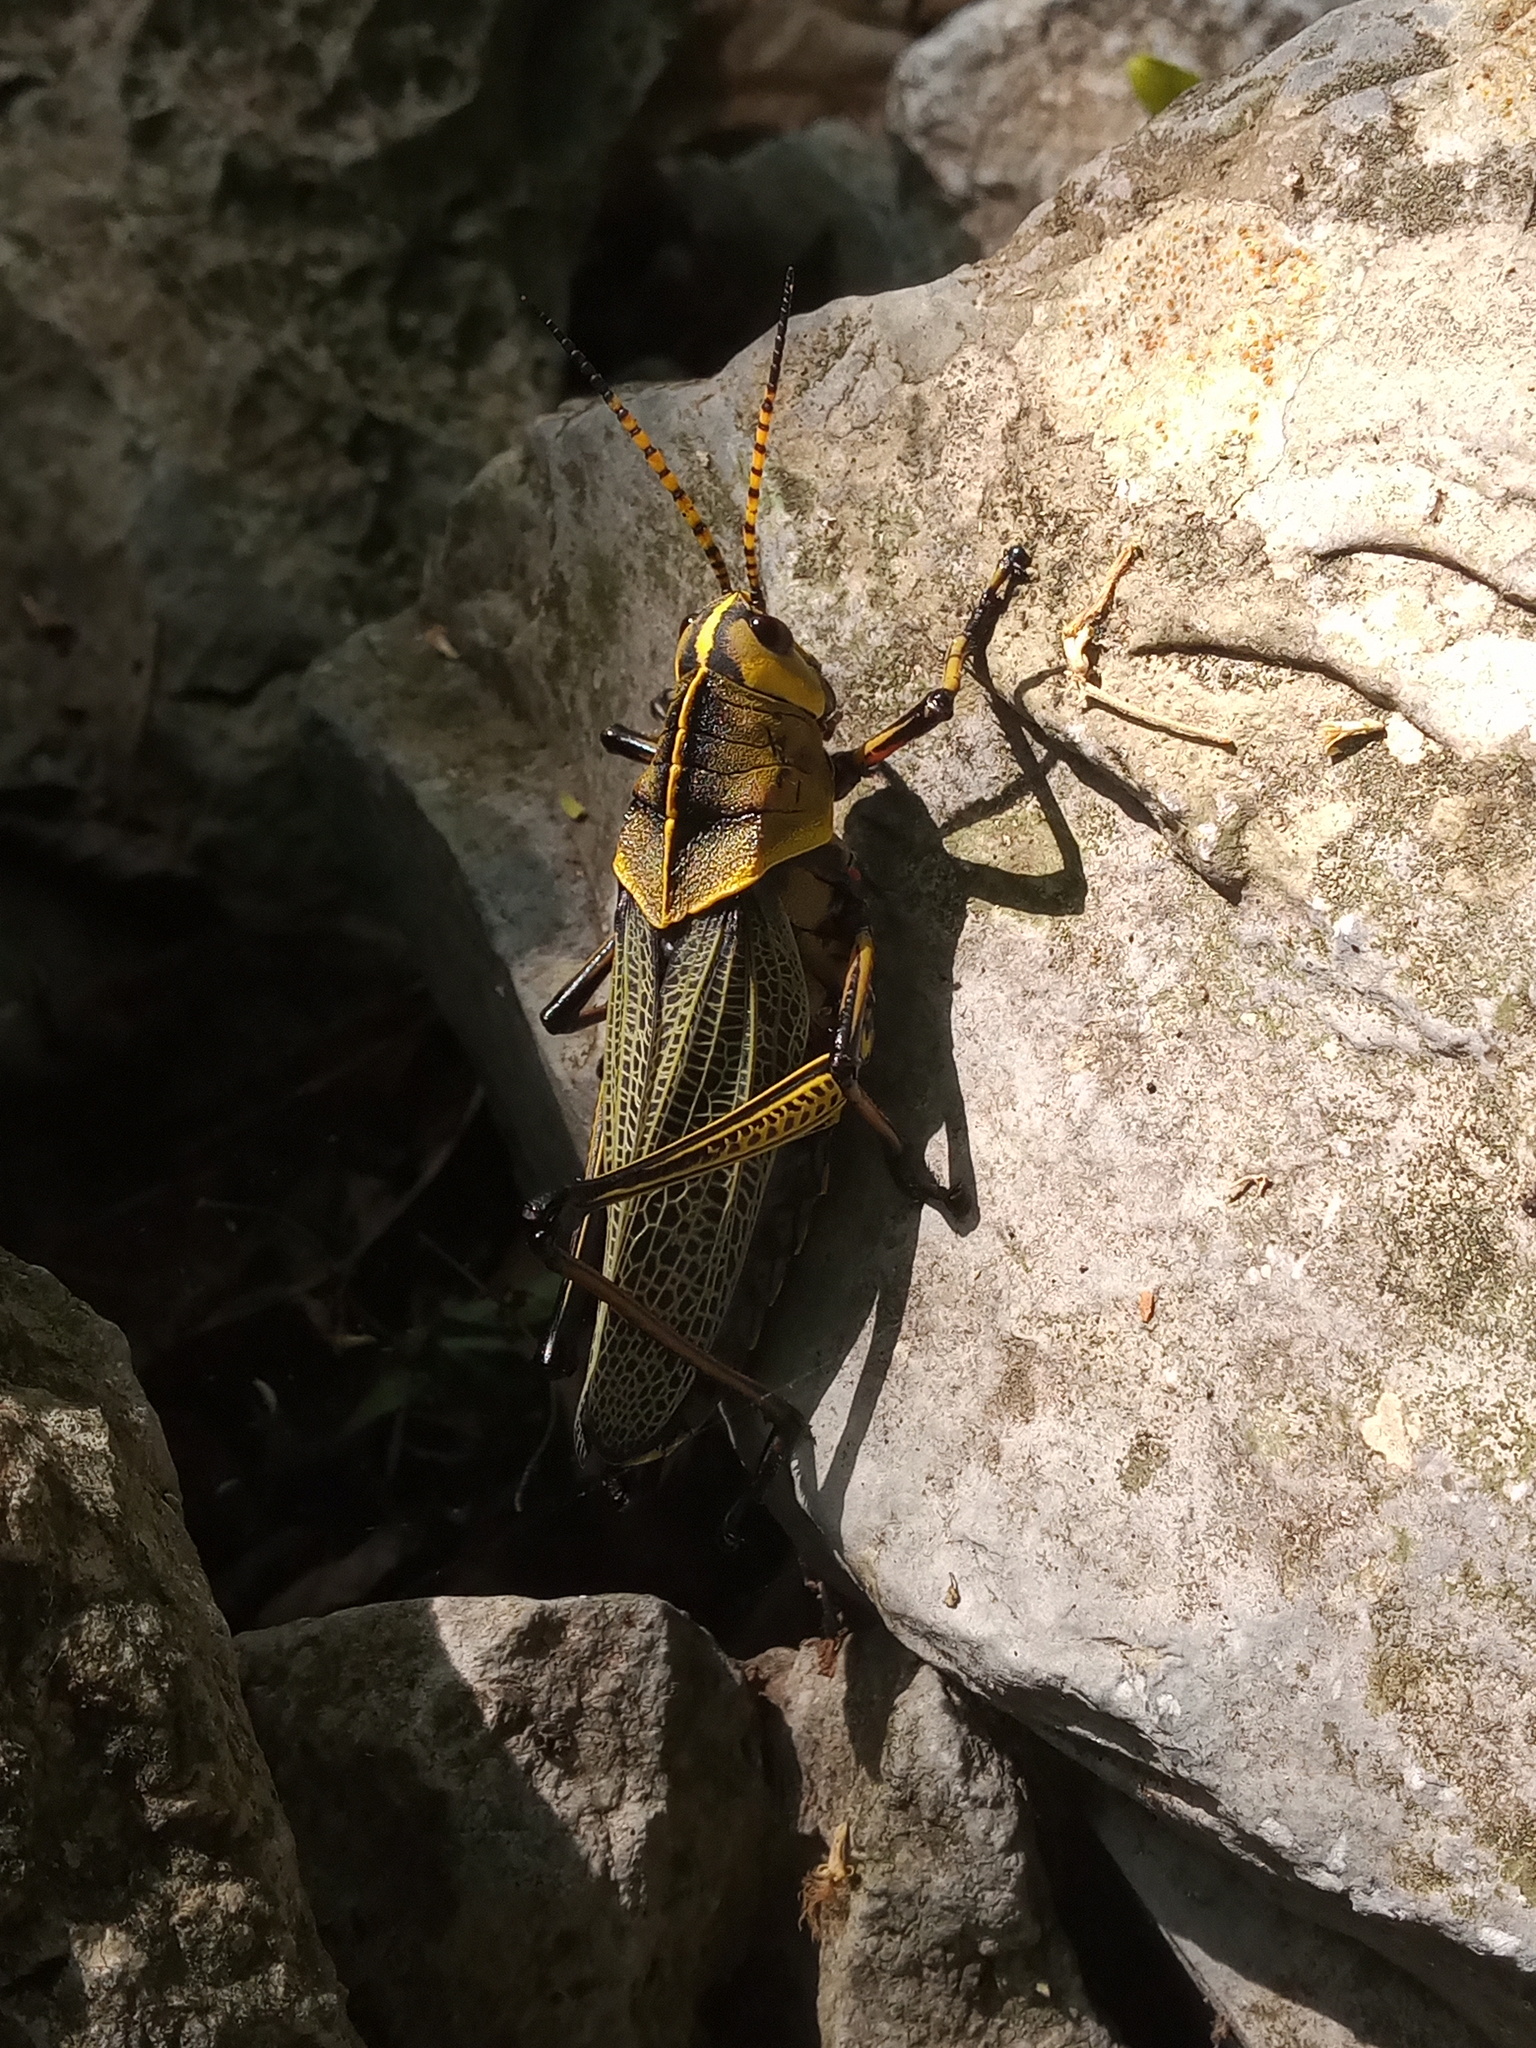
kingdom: Animalia
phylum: Arthropoda
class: Insecta
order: Orthoptera
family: Romaleidae
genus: Romalea
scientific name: Romalea
